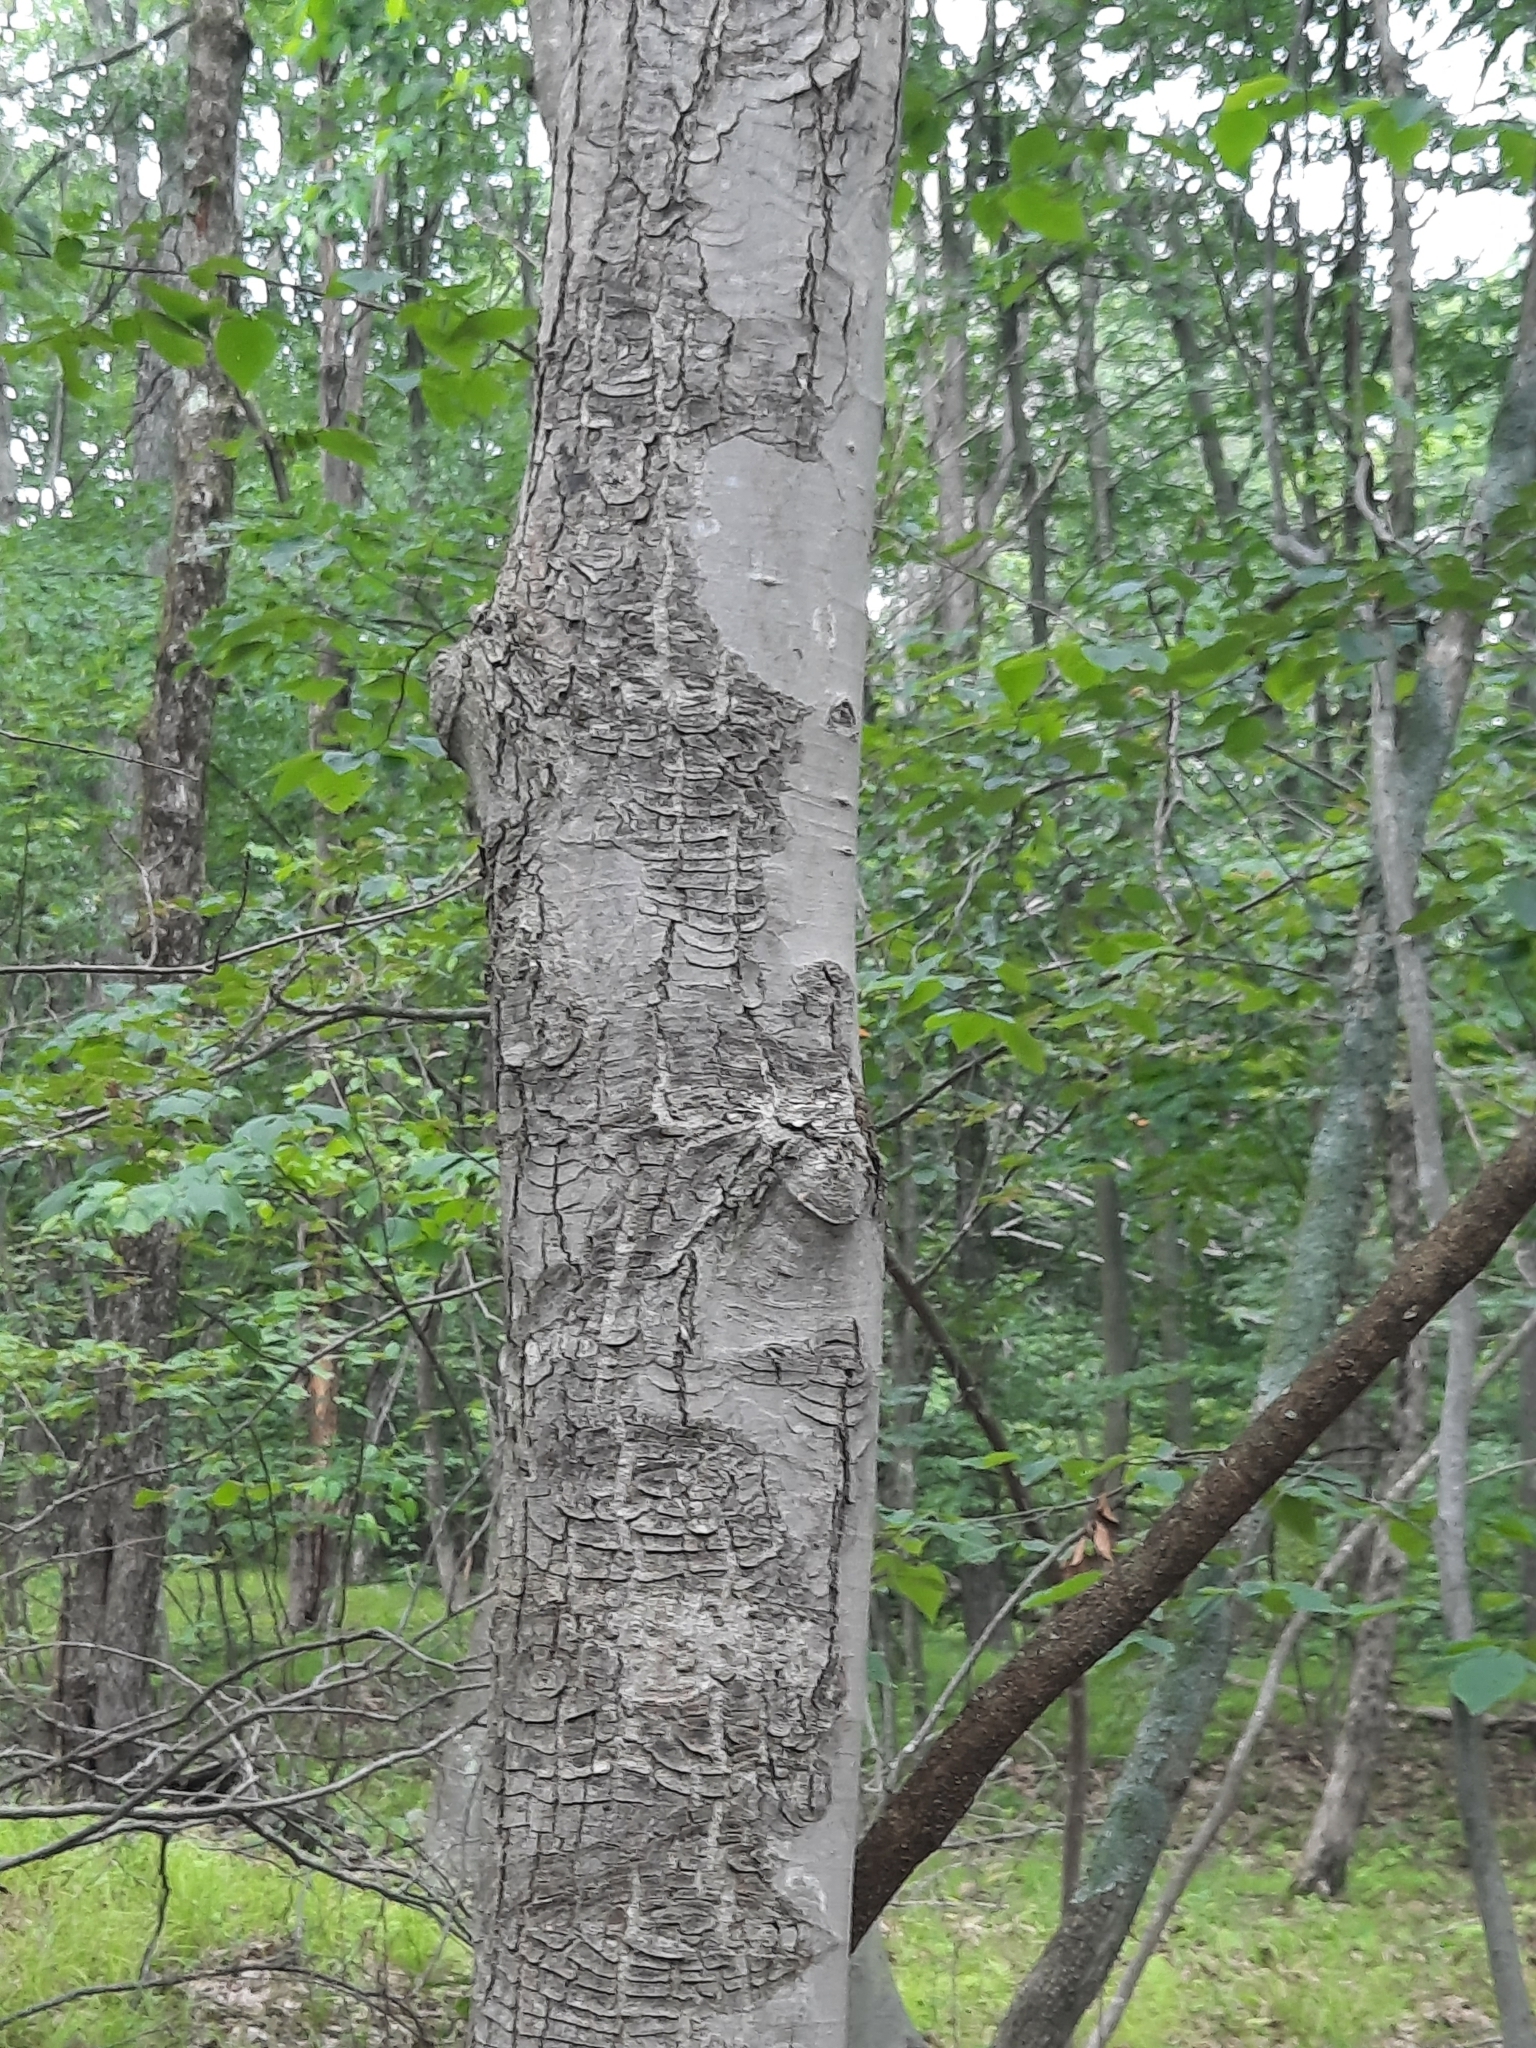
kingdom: Plantae
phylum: Tracheophyta
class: Magnoliopsida
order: Sapindales
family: Sapindaceae
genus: Acer
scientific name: Acer rubrum
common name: Red maple
